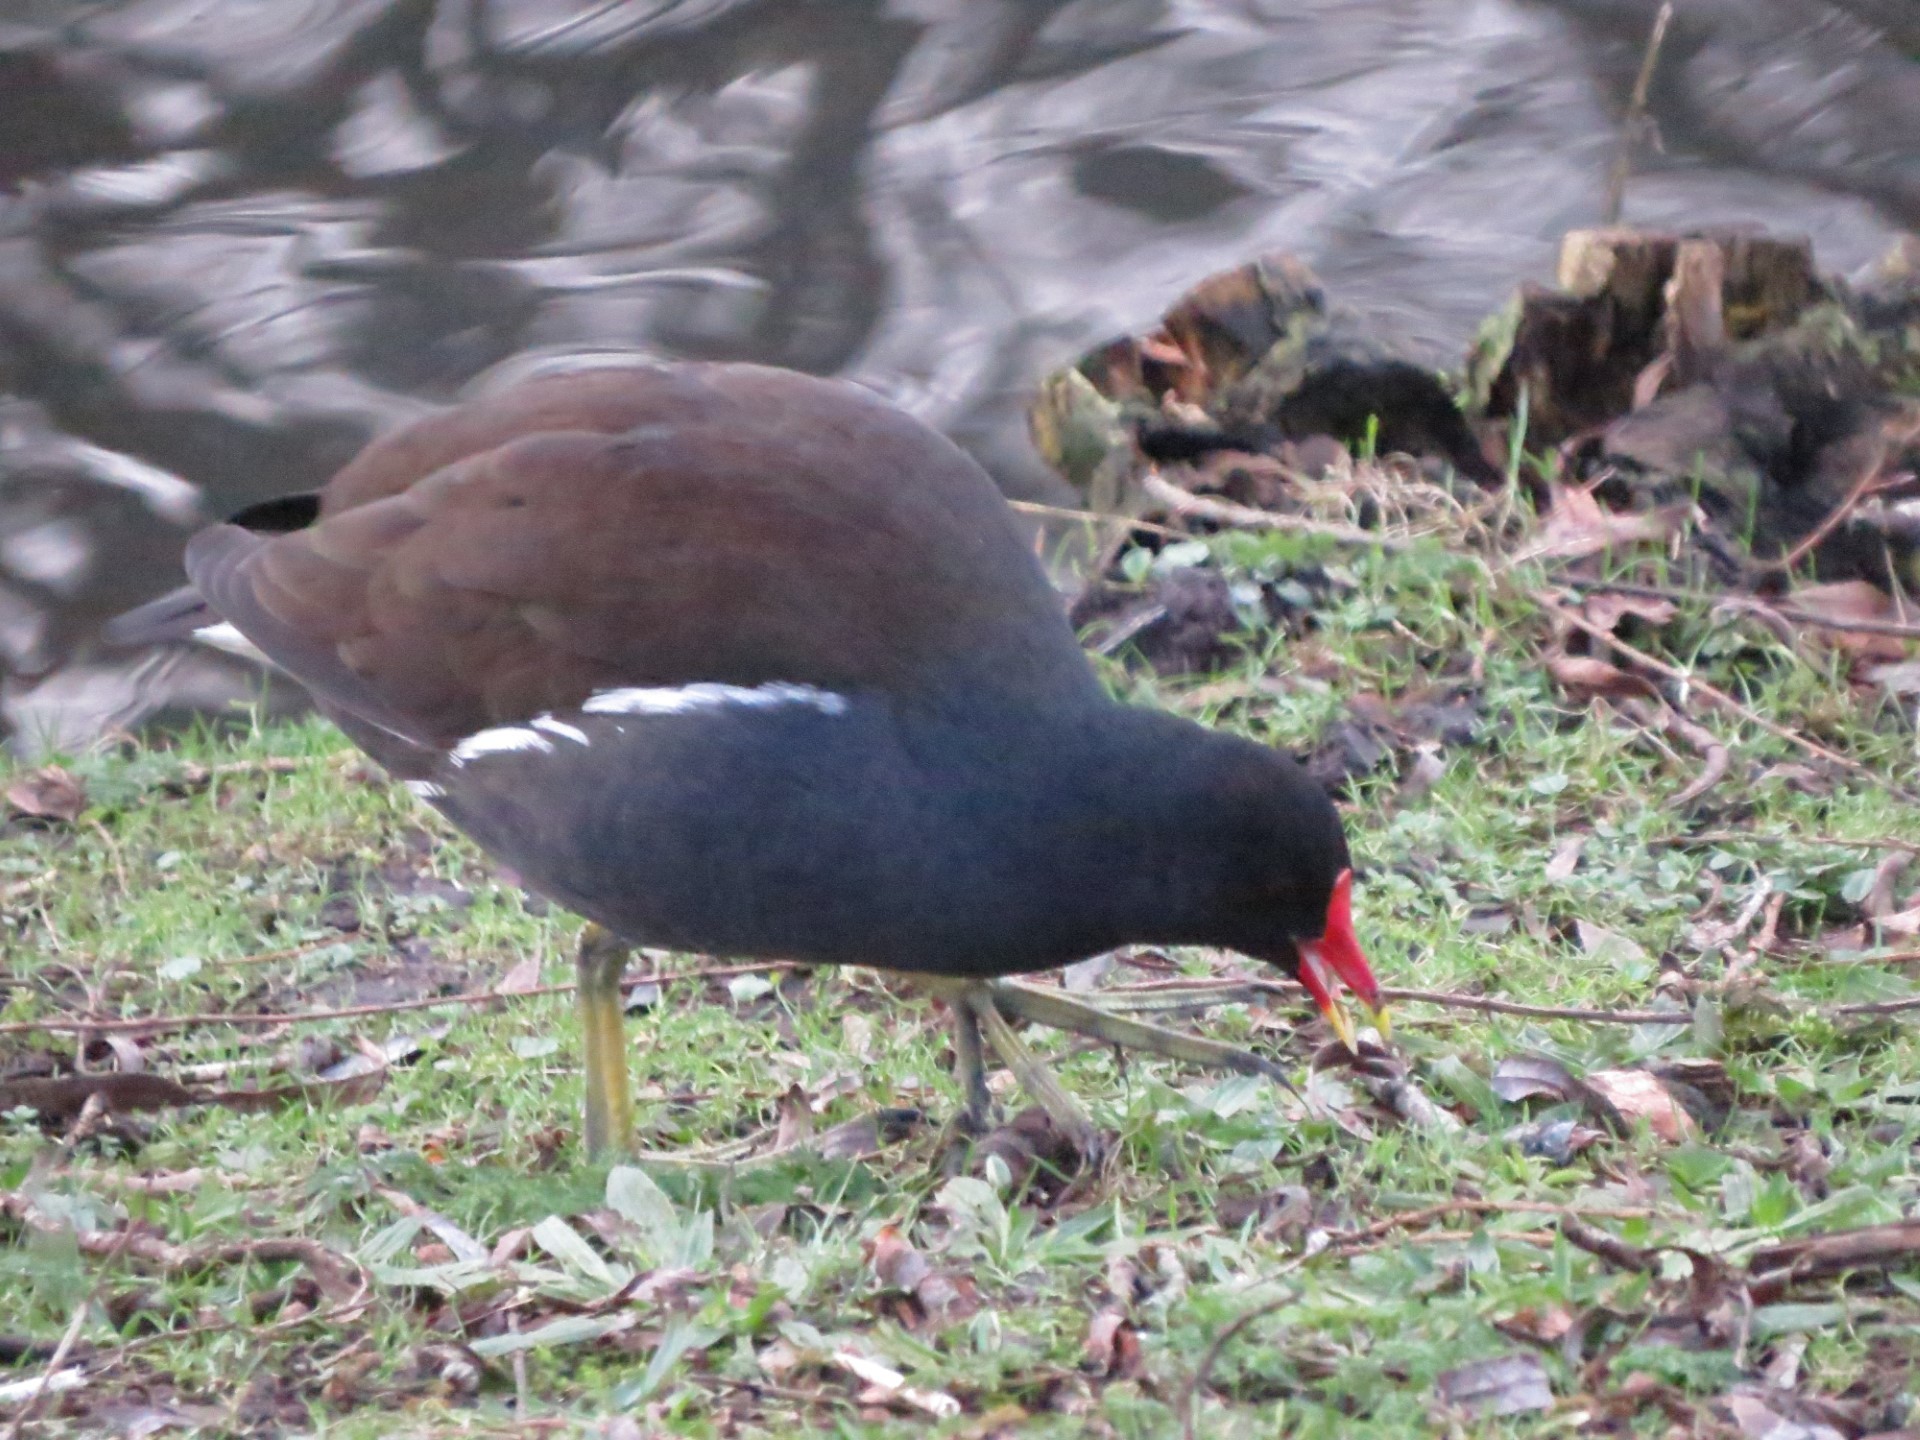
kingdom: Animalia
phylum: Chordata
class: Aves
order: Gruiformes
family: Rallidae
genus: Gallinula
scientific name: Gallinula chloropus
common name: Common moorhen
